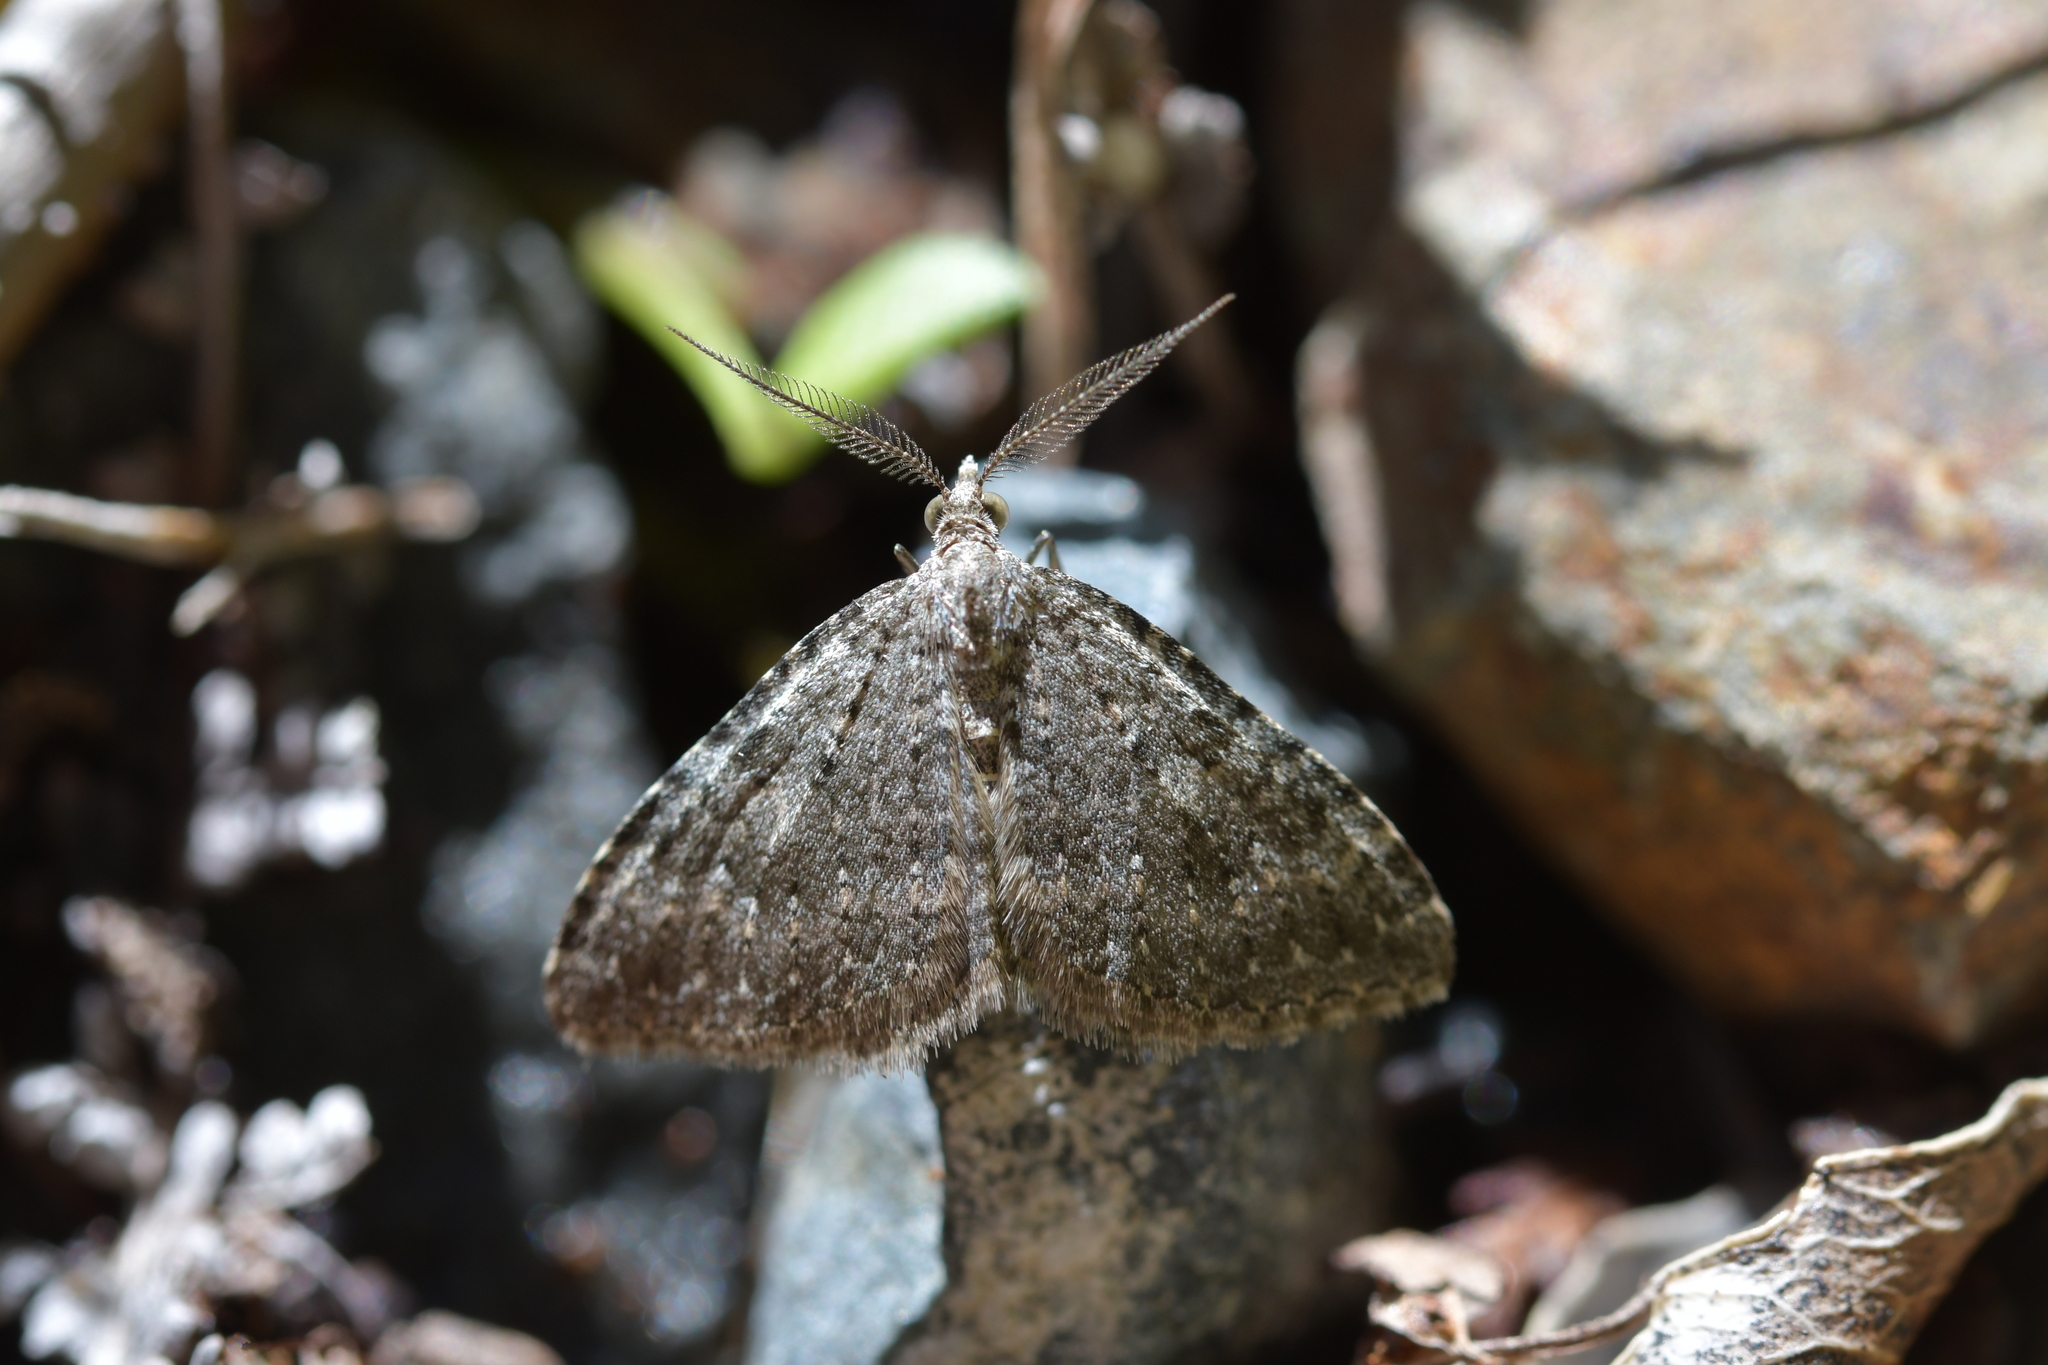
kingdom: Animalia
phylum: Arthropoda
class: Insecta
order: Lepidoptera
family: Geometridae
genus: Helastia
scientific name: Helastia semisignata
